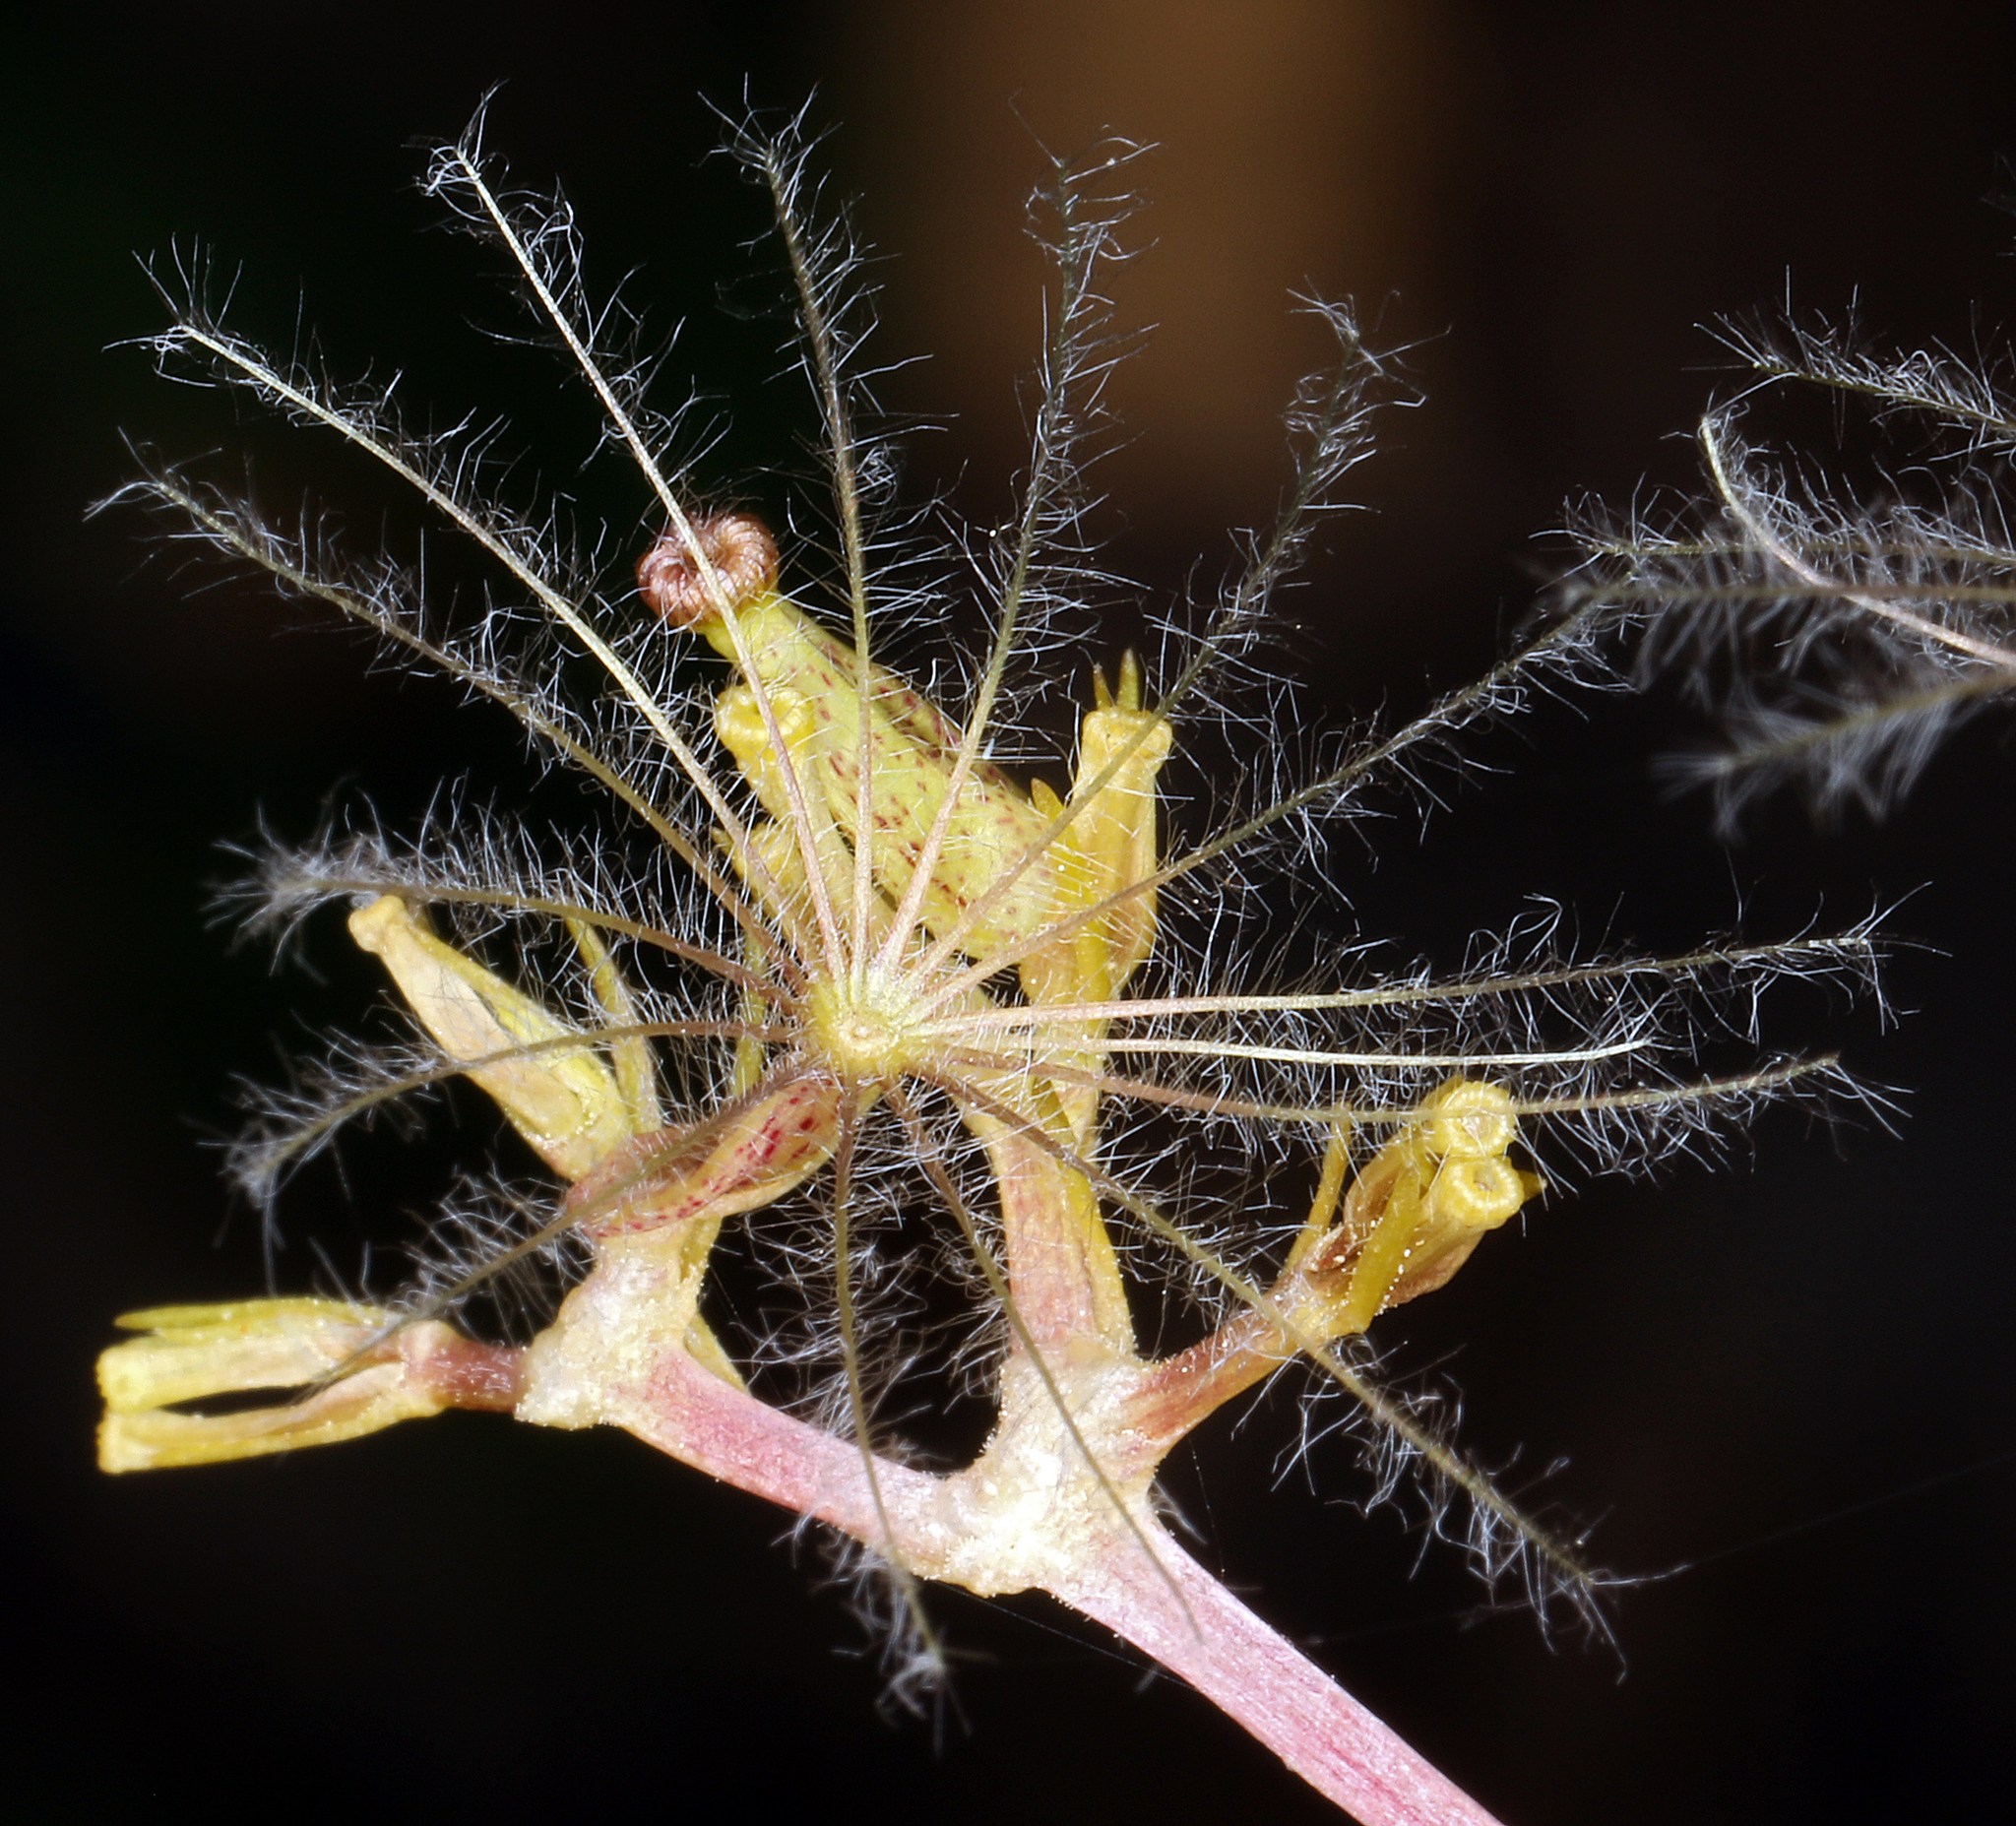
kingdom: Plantae
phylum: Tracheophyta
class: Magnoliopsida
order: Dipsacales
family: Caprifoliaceae
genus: Valeriana
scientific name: Valeriana californica
